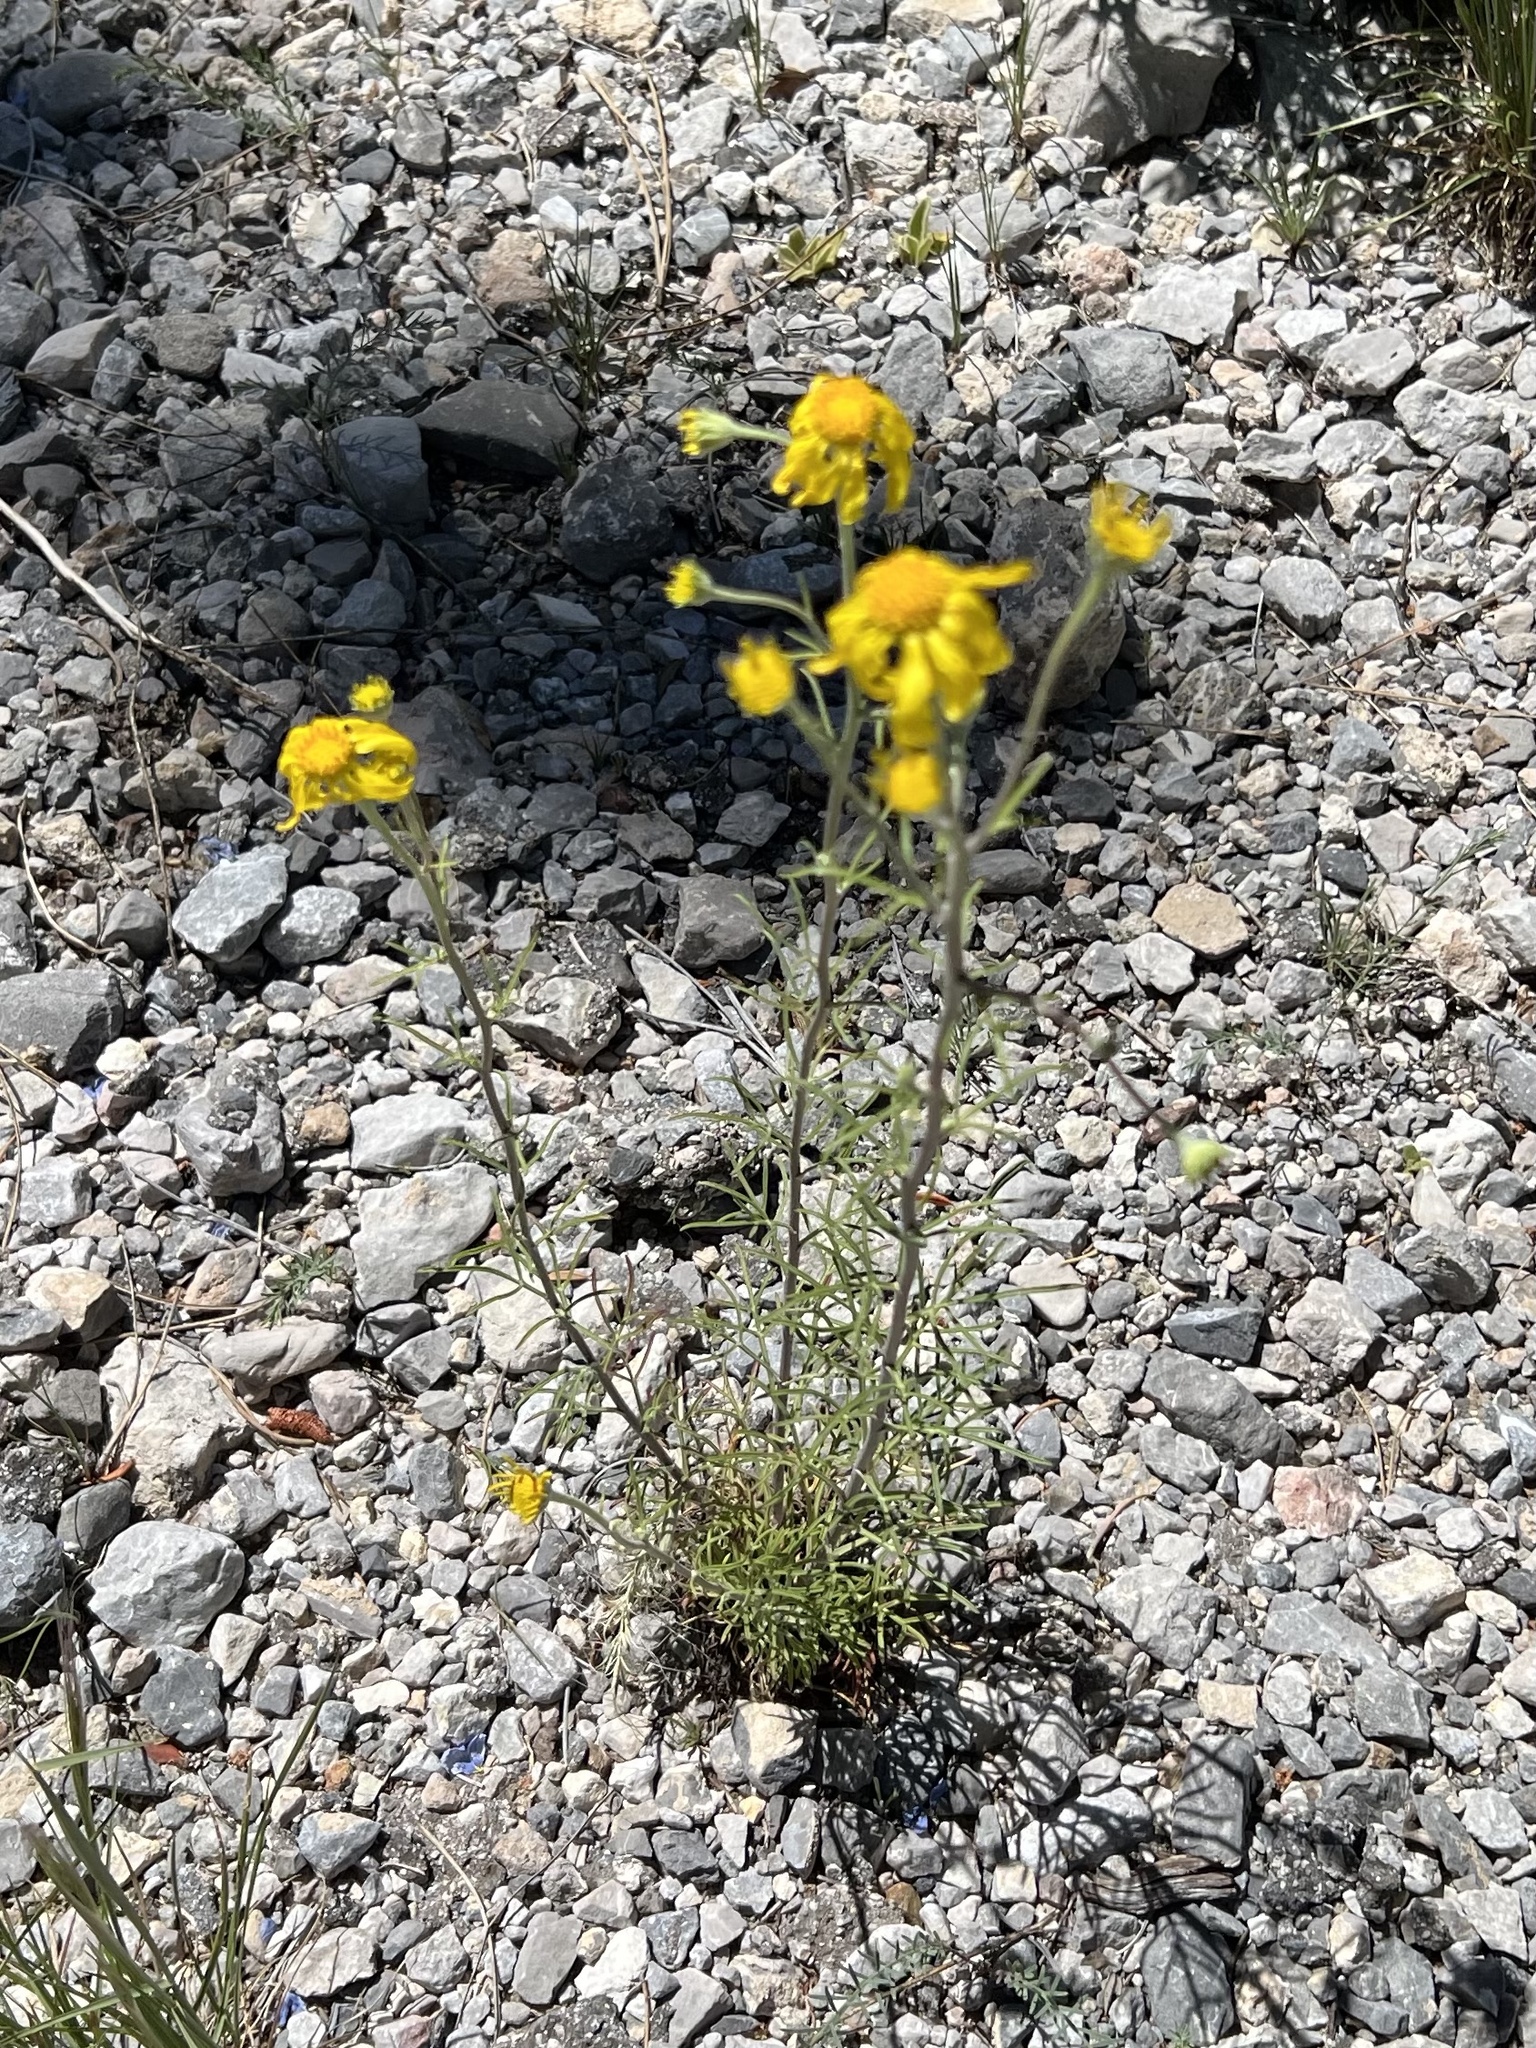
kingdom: Plantae
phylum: Tracheophyta
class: Magnoliopsida
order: Asterales
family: Asteraceae
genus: Hymenoxys
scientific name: Hymenoxys cooperi
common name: Cooper's bitterweed
